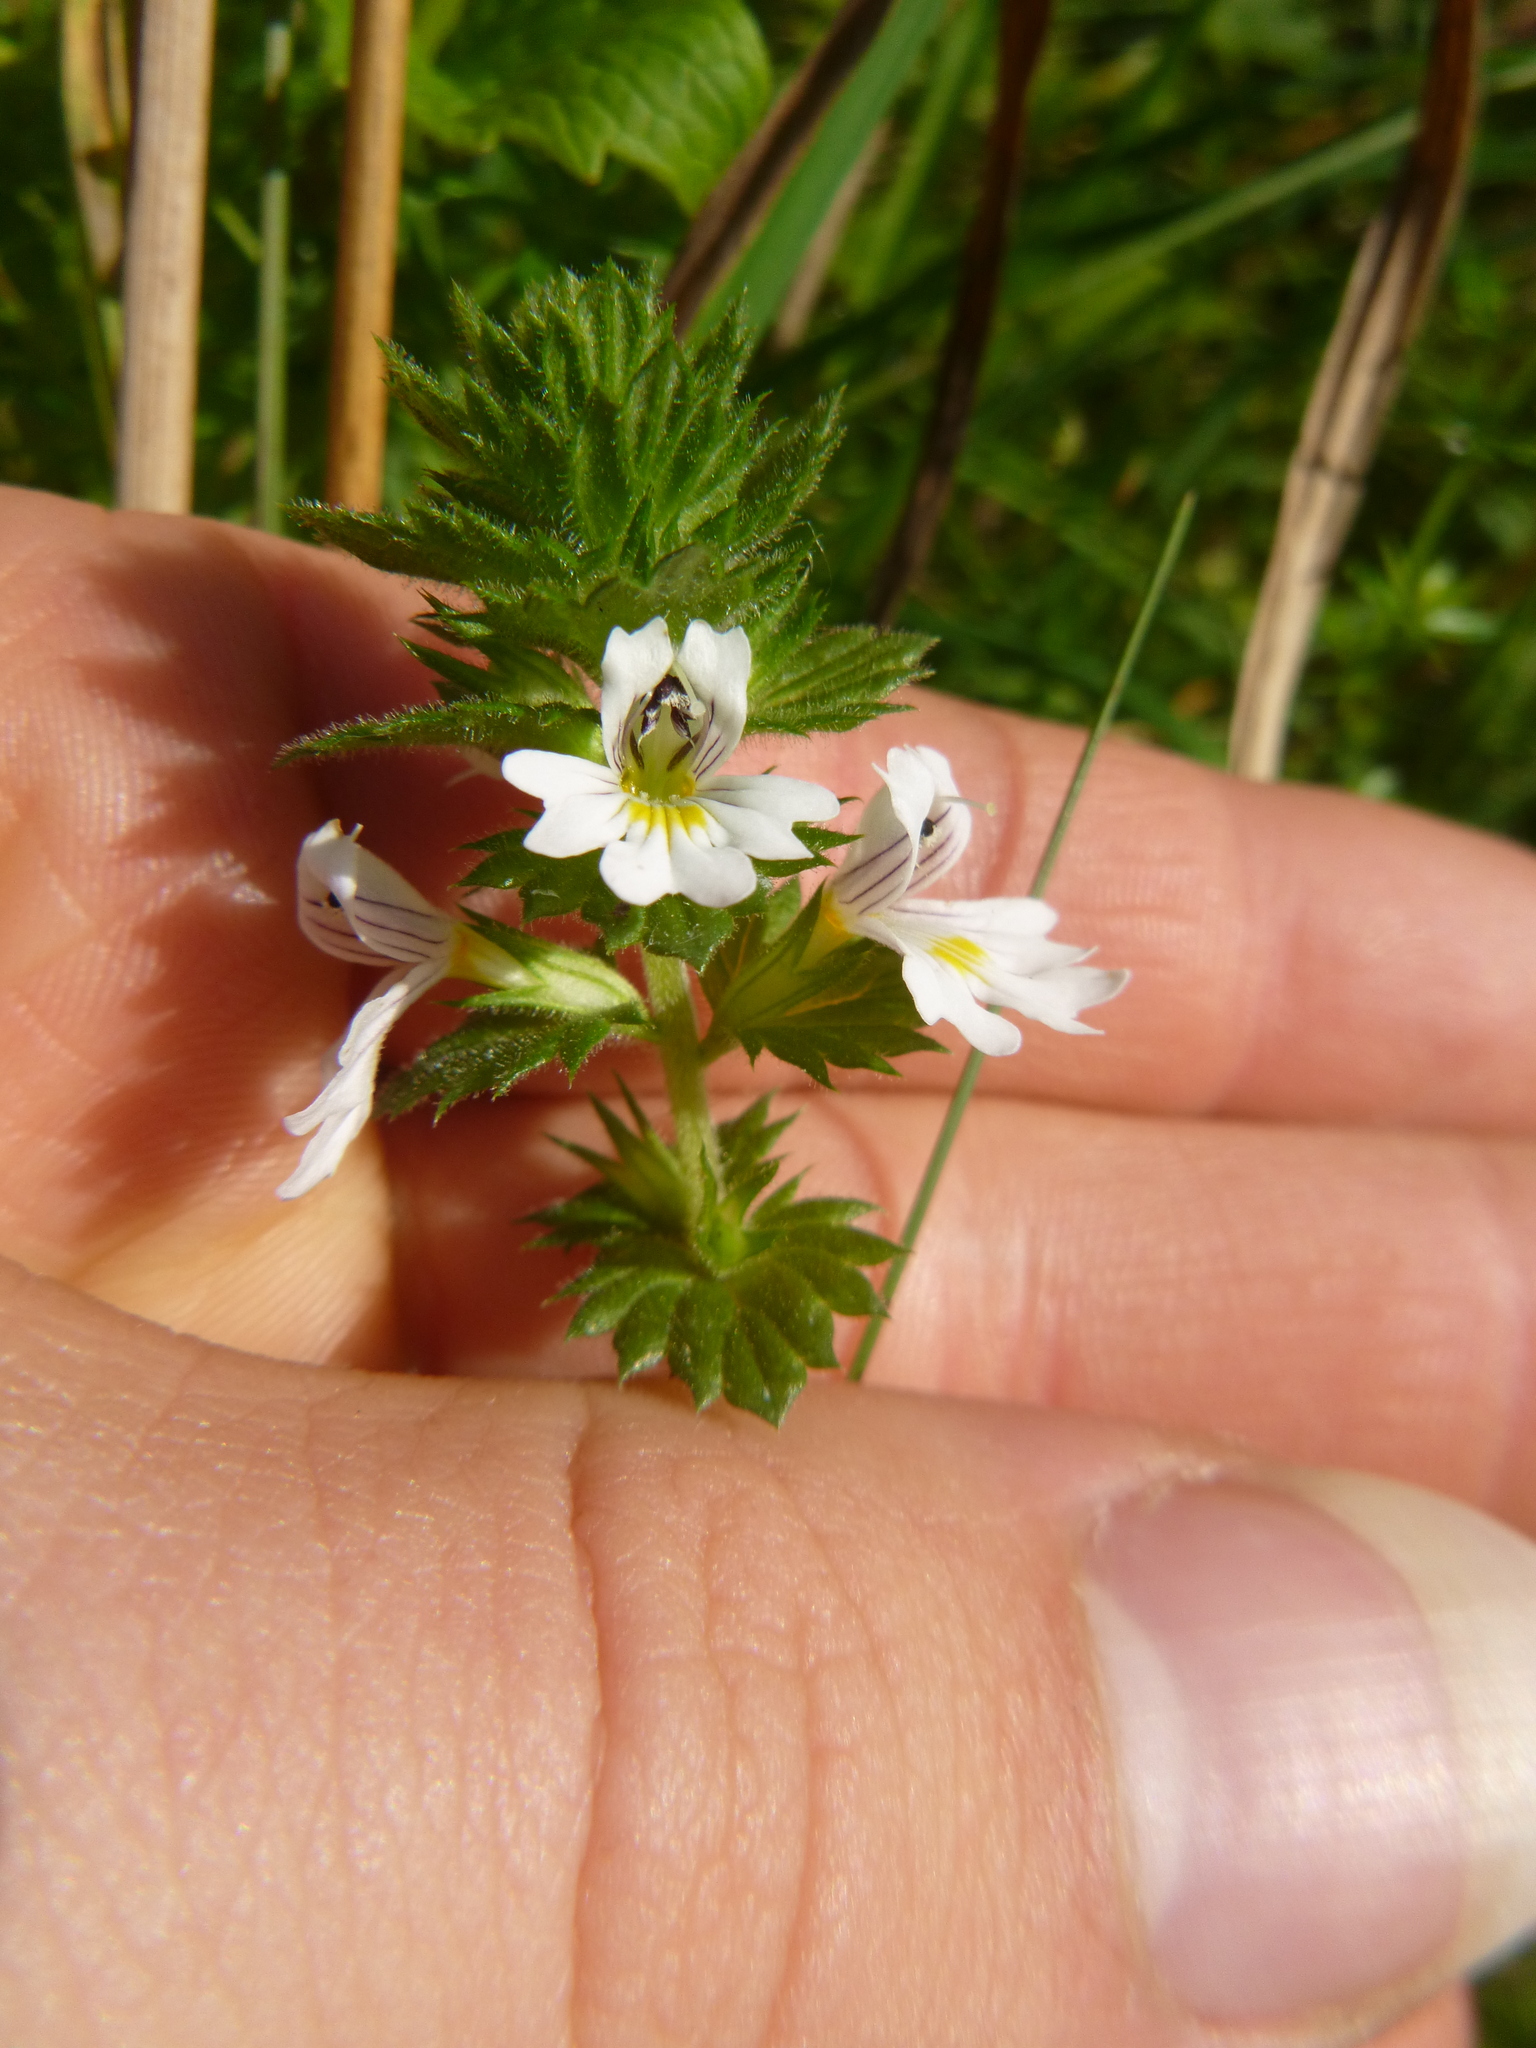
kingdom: Plantae
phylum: Tracheophyta
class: Magnoliopsida
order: Lamiales
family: Orobanchaceae
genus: Euphrasia
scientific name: Euphrasia officinalis
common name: Eyebright
